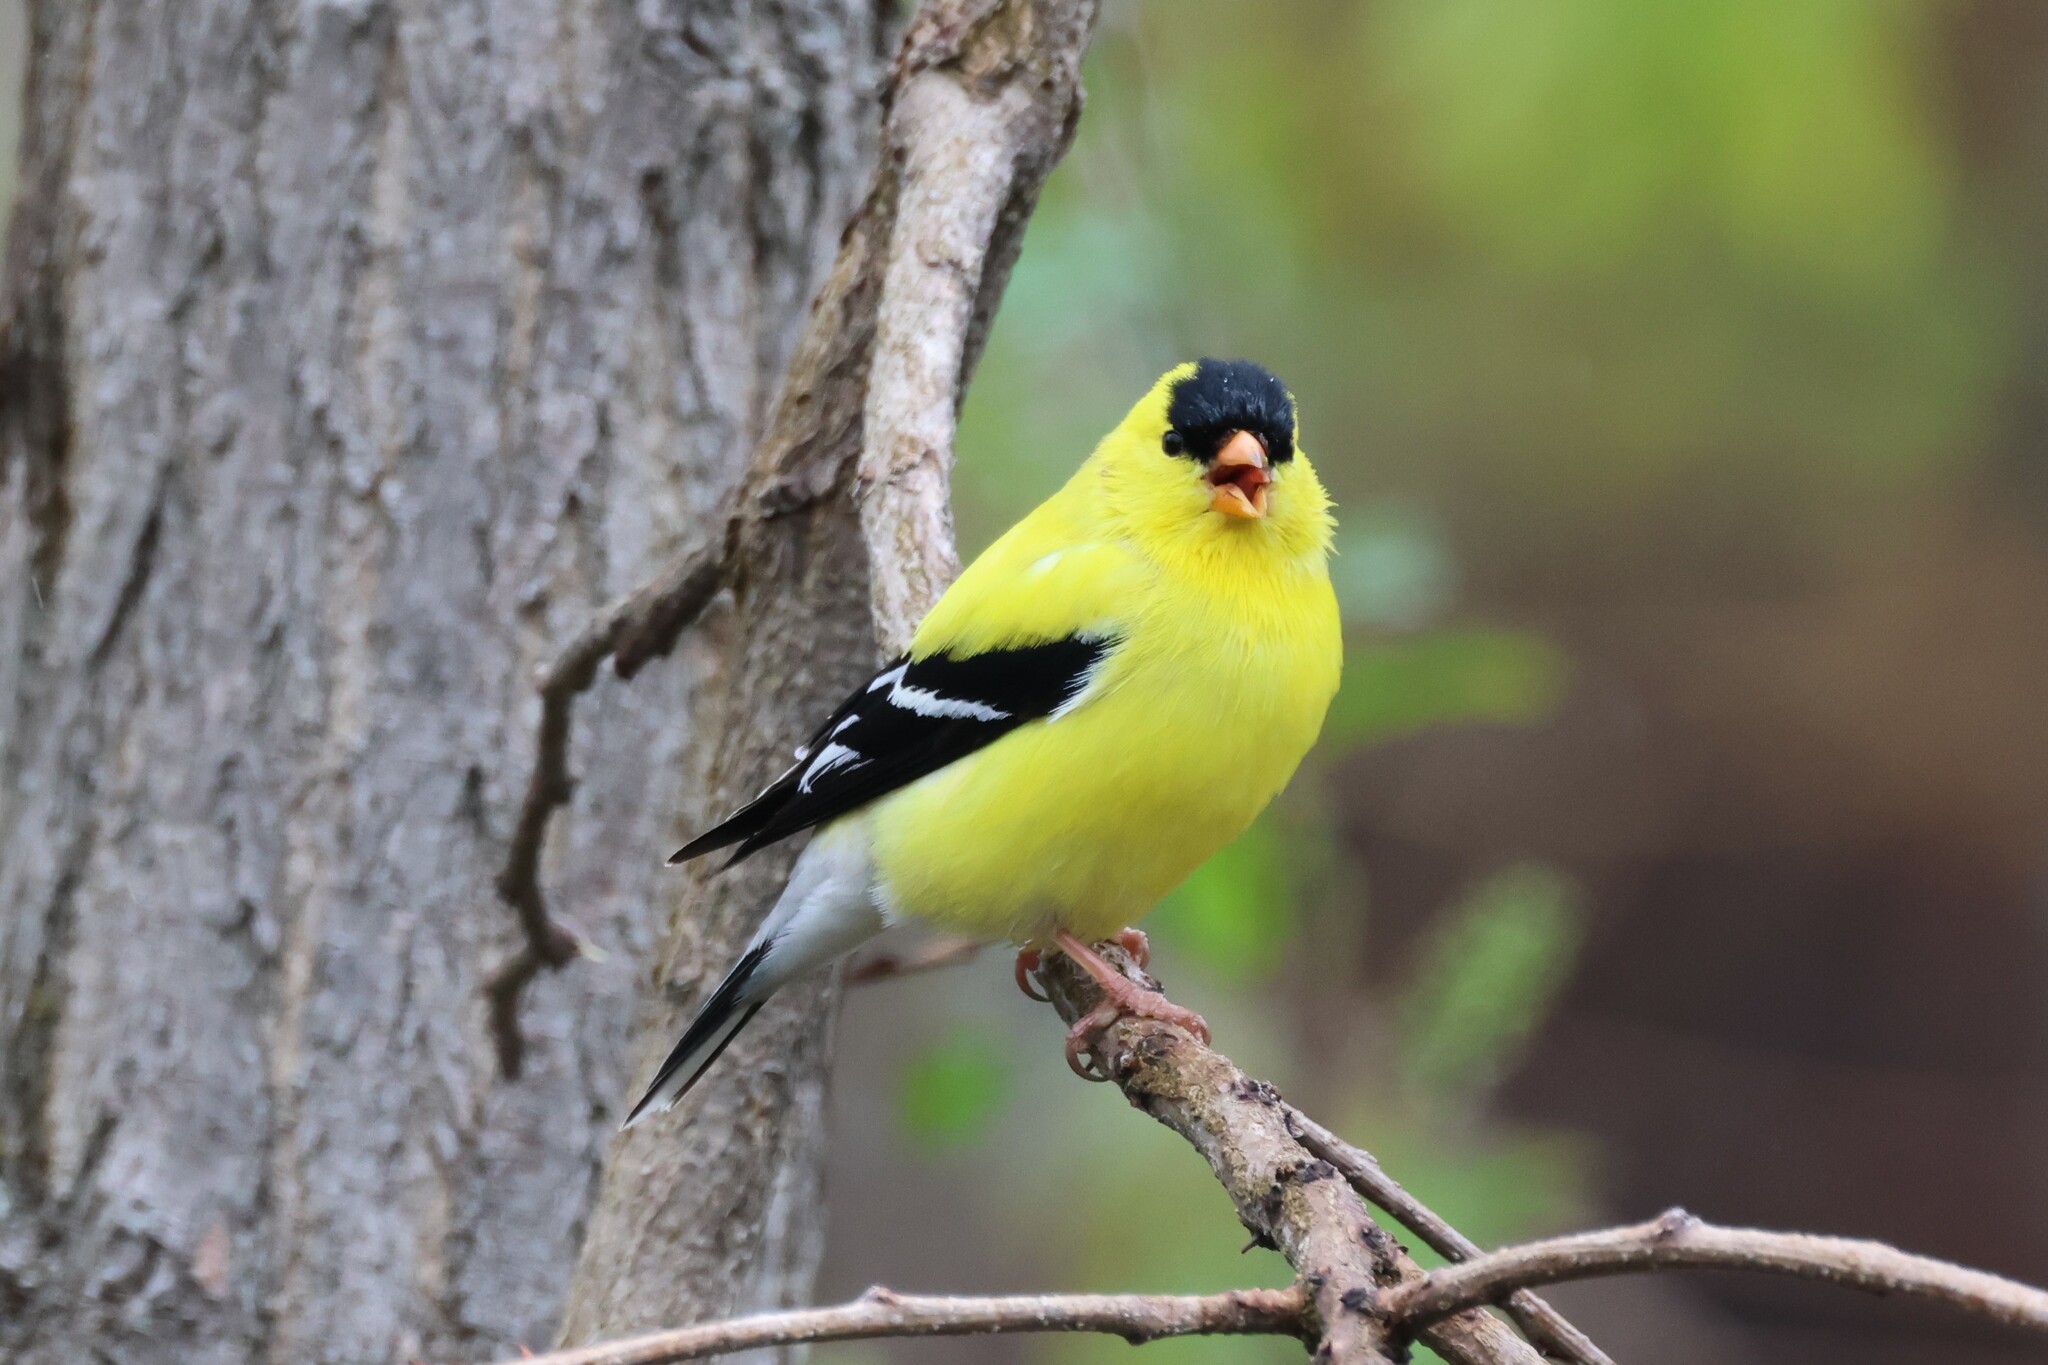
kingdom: Animalia
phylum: Chordata
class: Aves
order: Passeriformes
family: Fringillidae
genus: Spinus
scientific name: Spinus tristis
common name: American goldfinch
